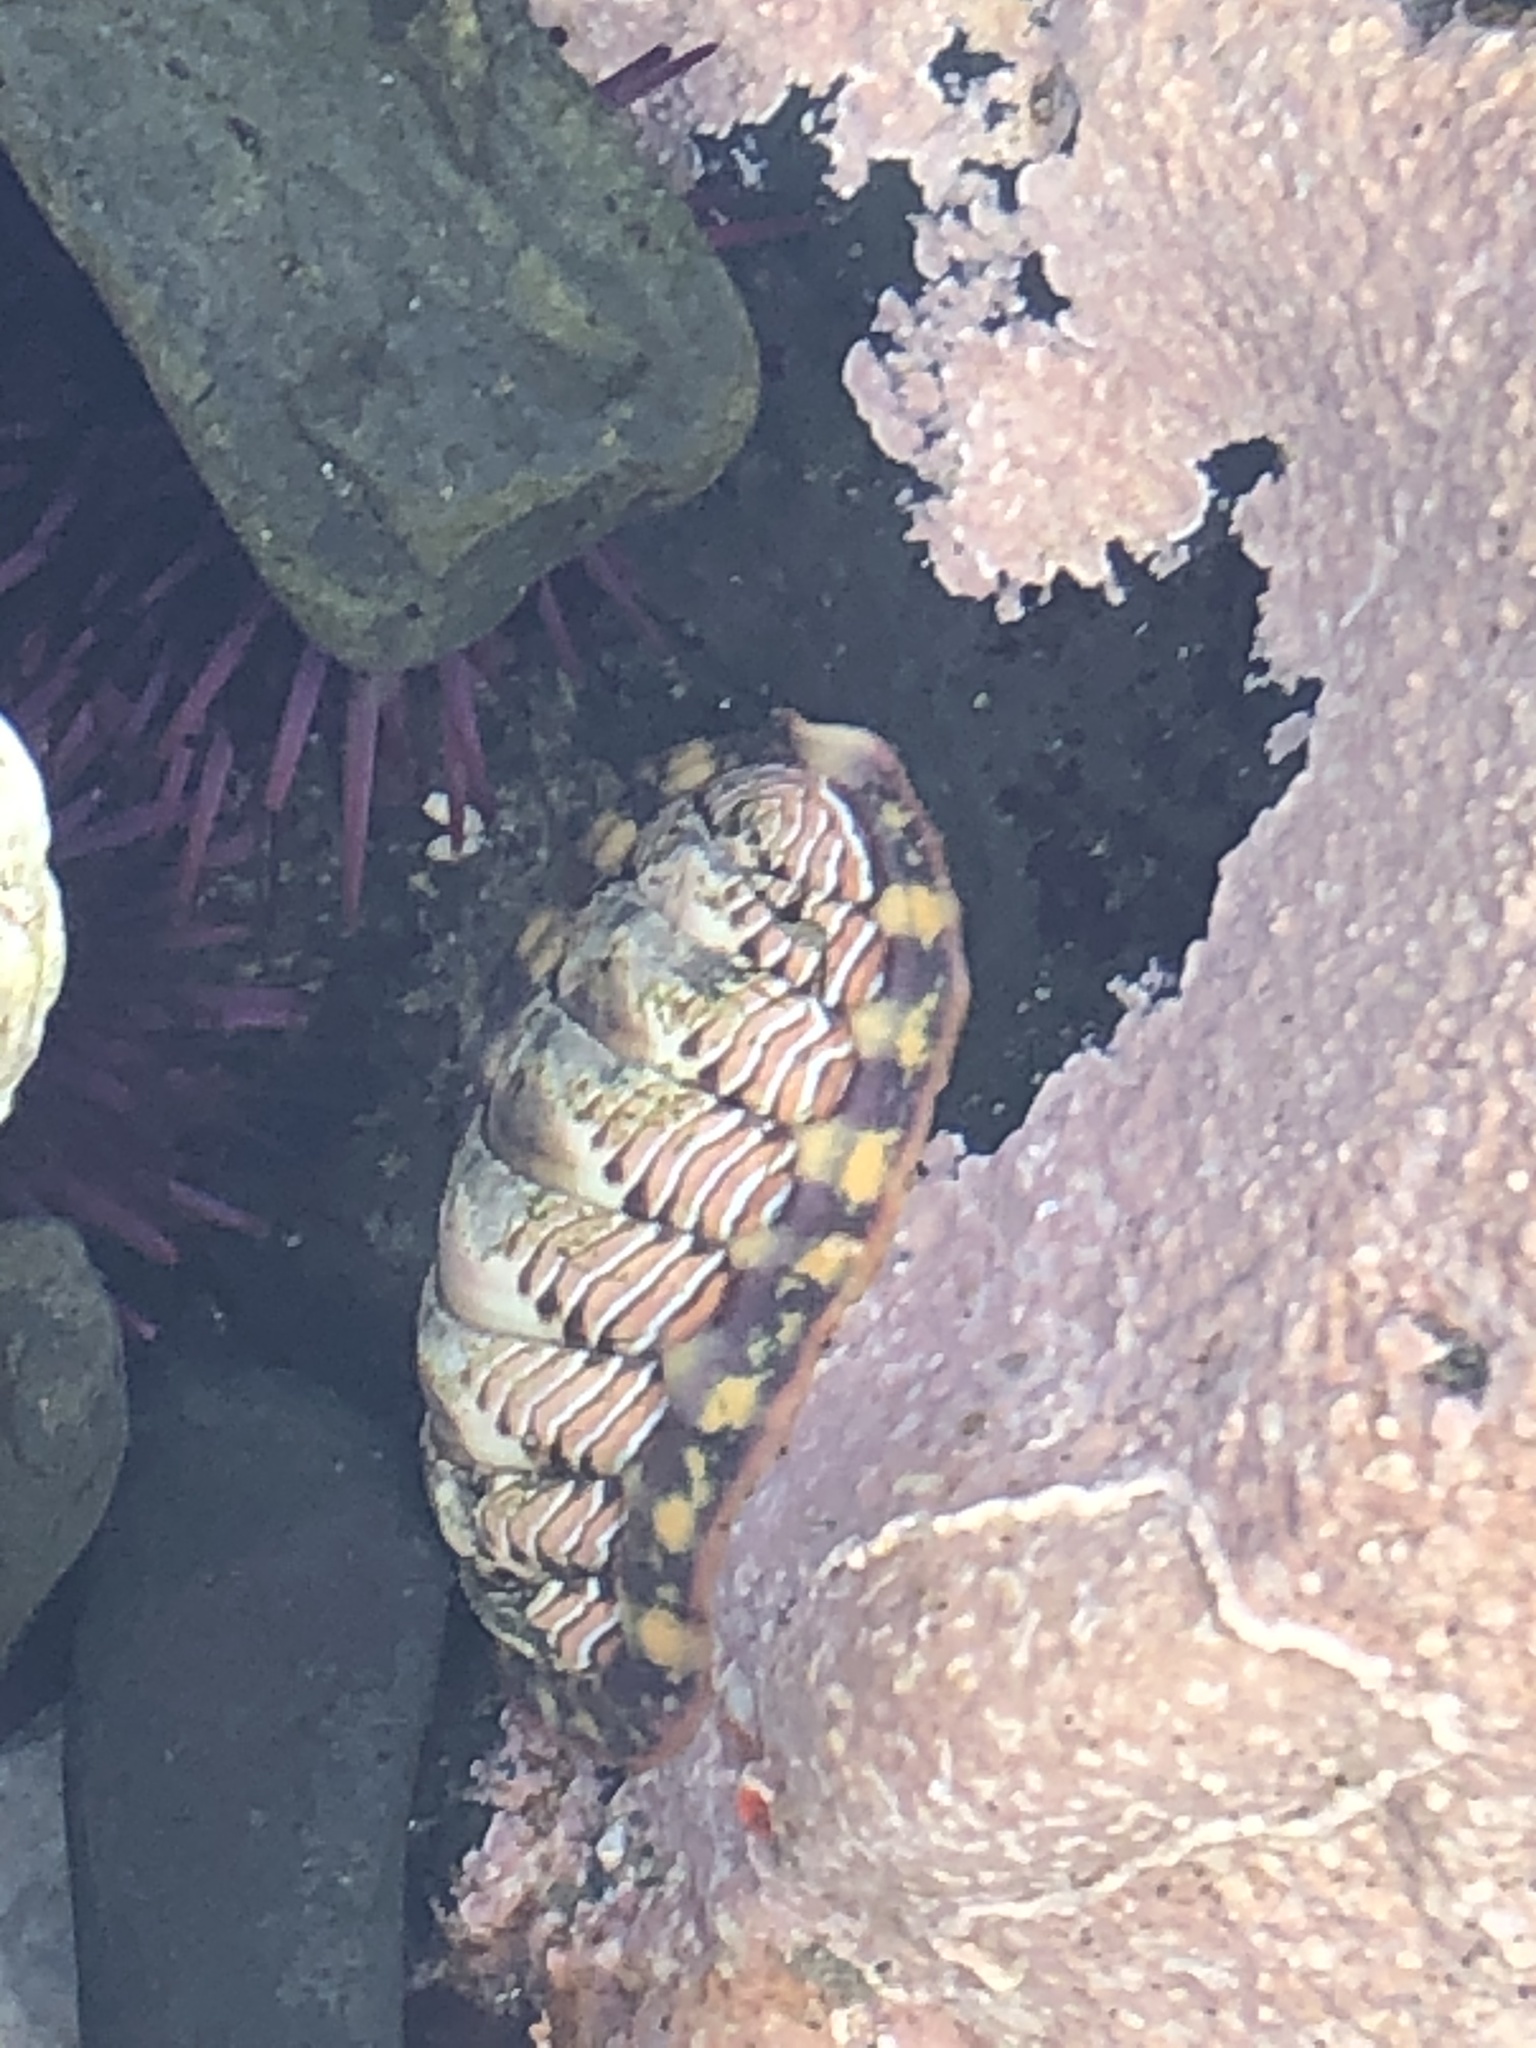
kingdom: Animalia
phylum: Mollusca
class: Polyplacophora
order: Chitonida
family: Tonicellidae
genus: Tonicella
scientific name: Tonicella lineata
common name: Lined chiton
